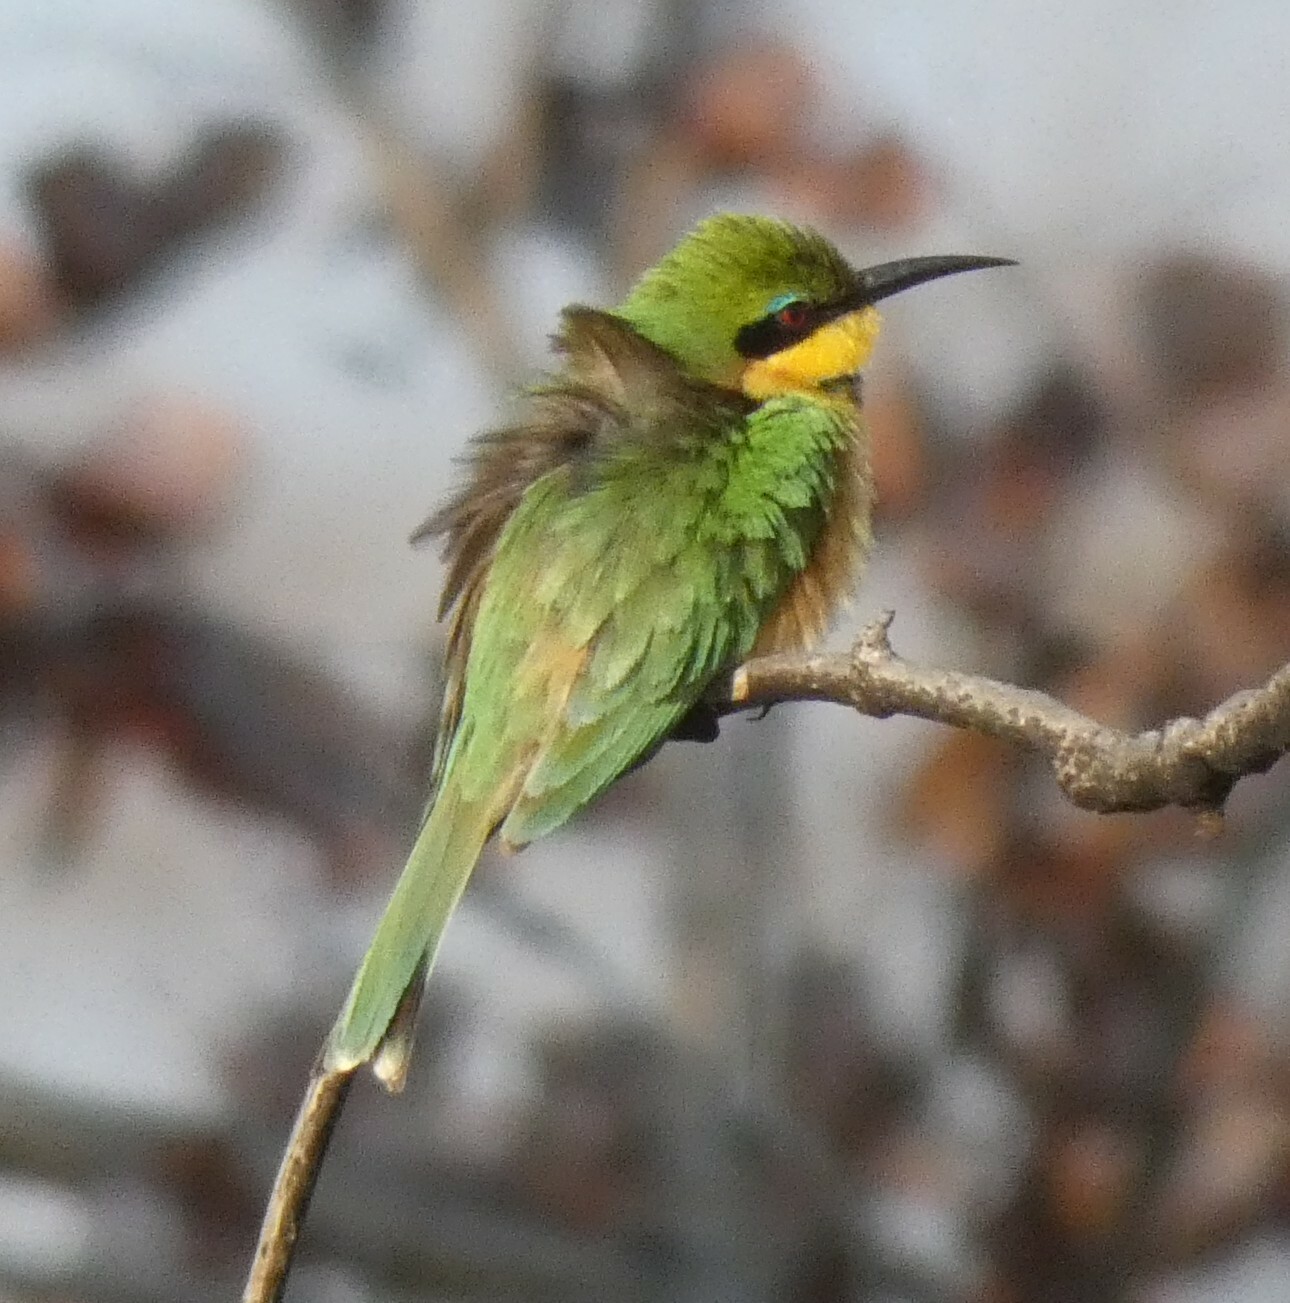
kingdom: Animalia
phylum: Chordata
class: Aves
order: Coraciiformes
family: Meropidae
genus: Merops
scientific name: Merops pusillus
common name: Little bee-eater
